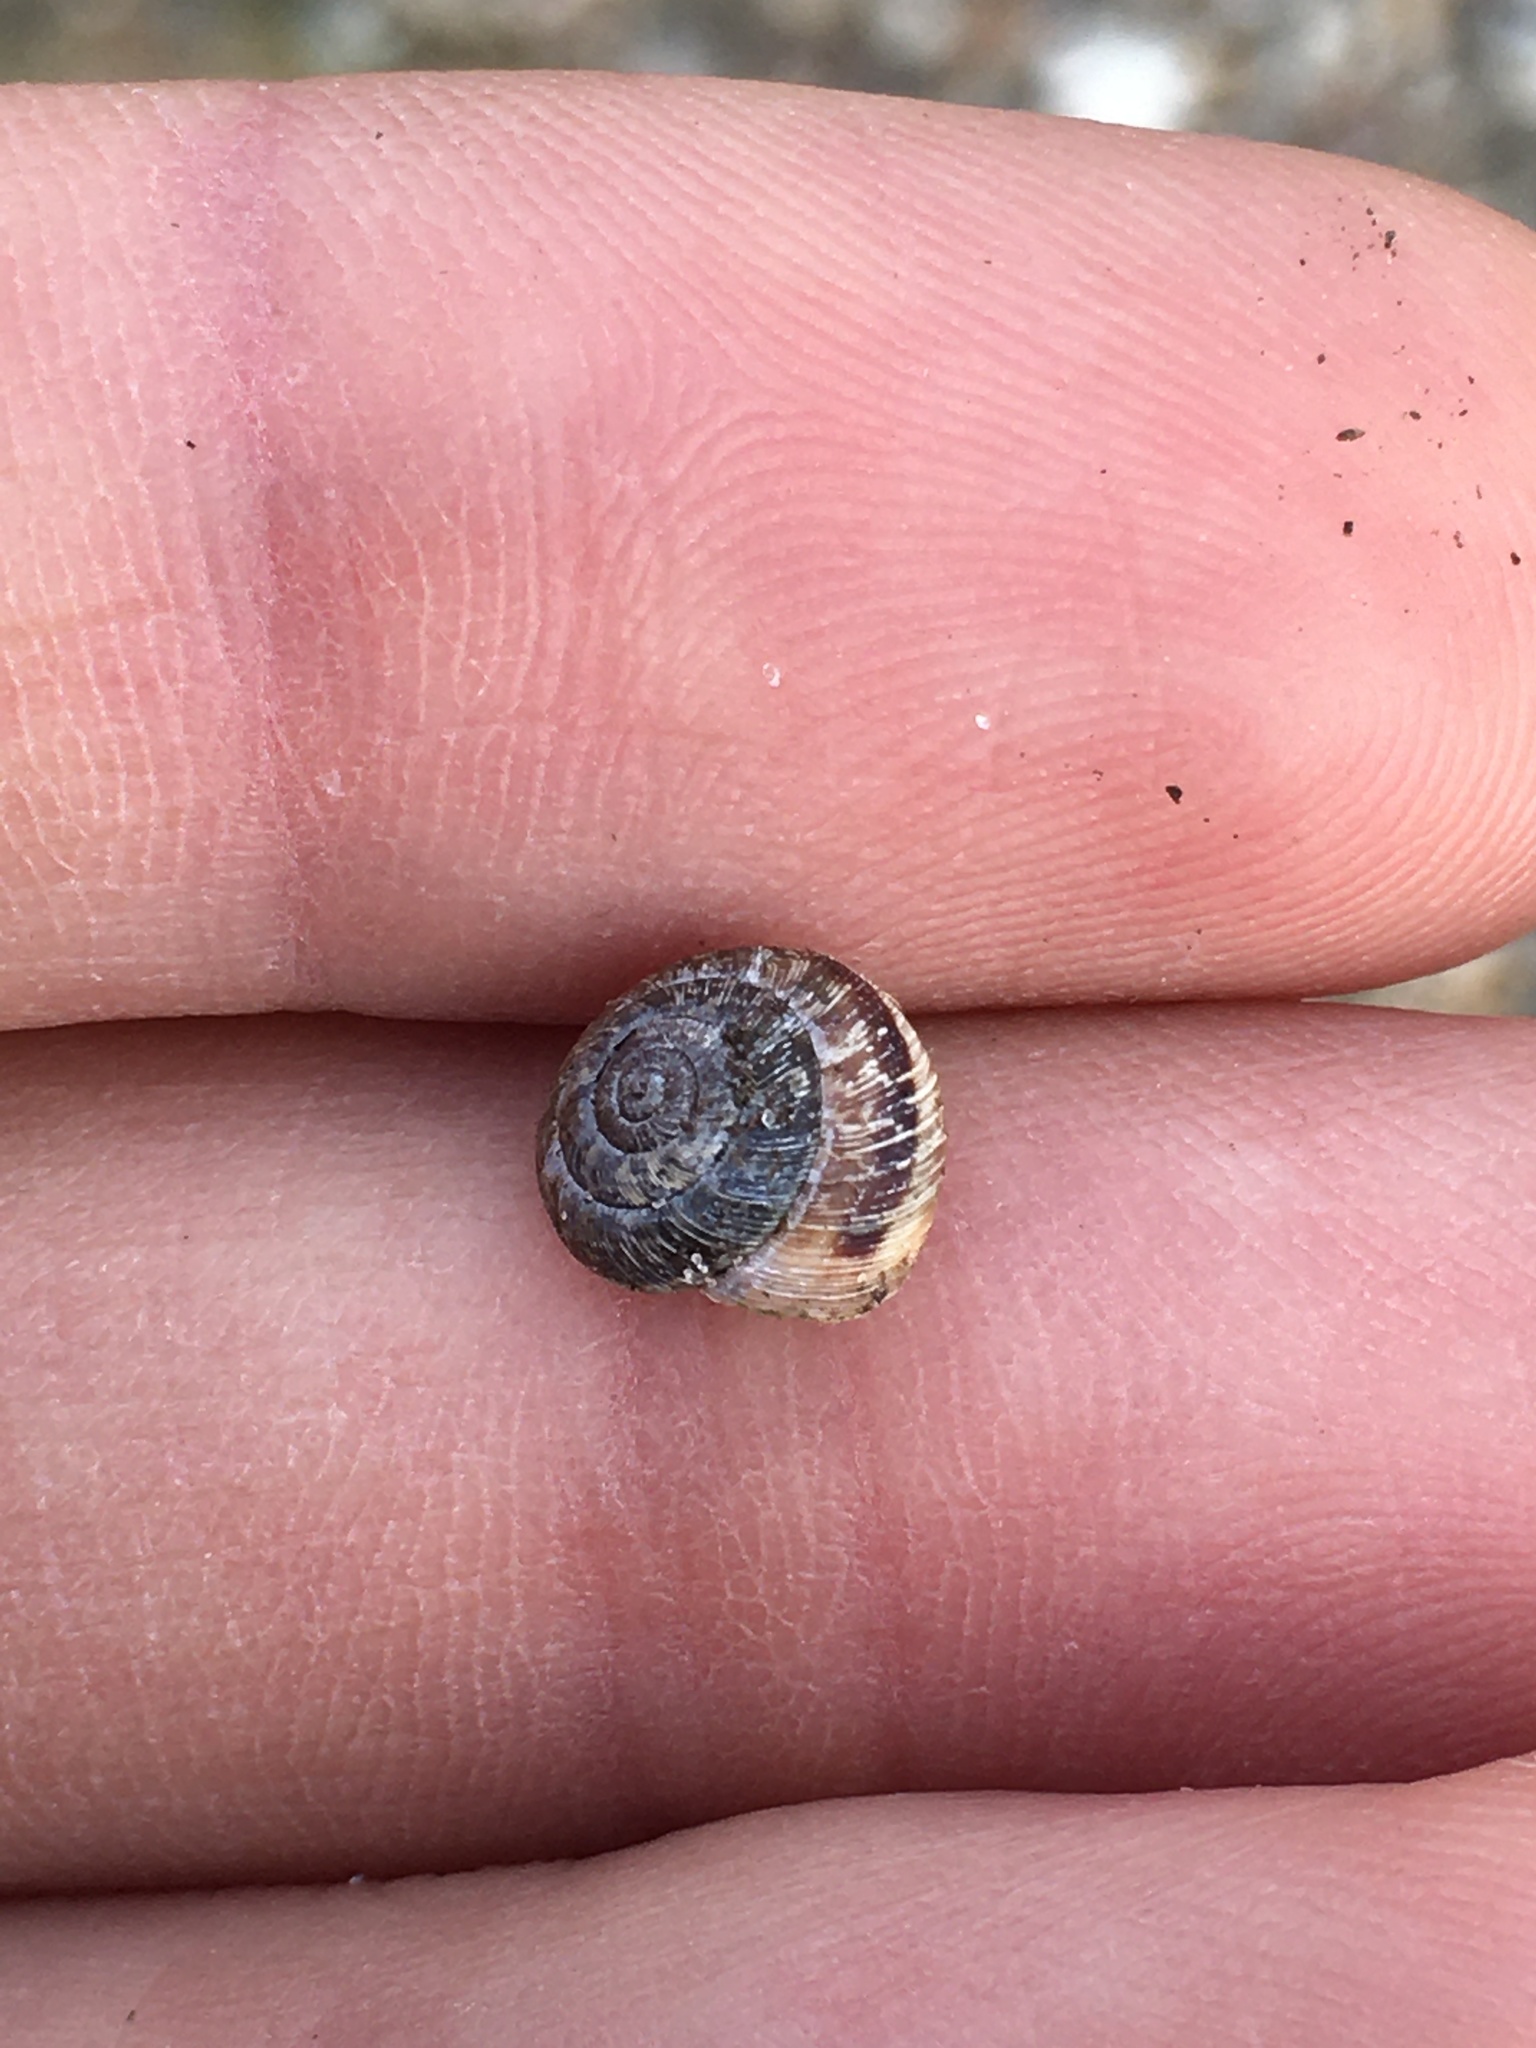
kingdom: Animalia
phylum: Mollusca
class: Gastropoda
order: Stylommatophora
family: Geomitridae
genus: Xeroplexa
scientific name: Xeroplexa intersecta
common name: Wrinkled snail
